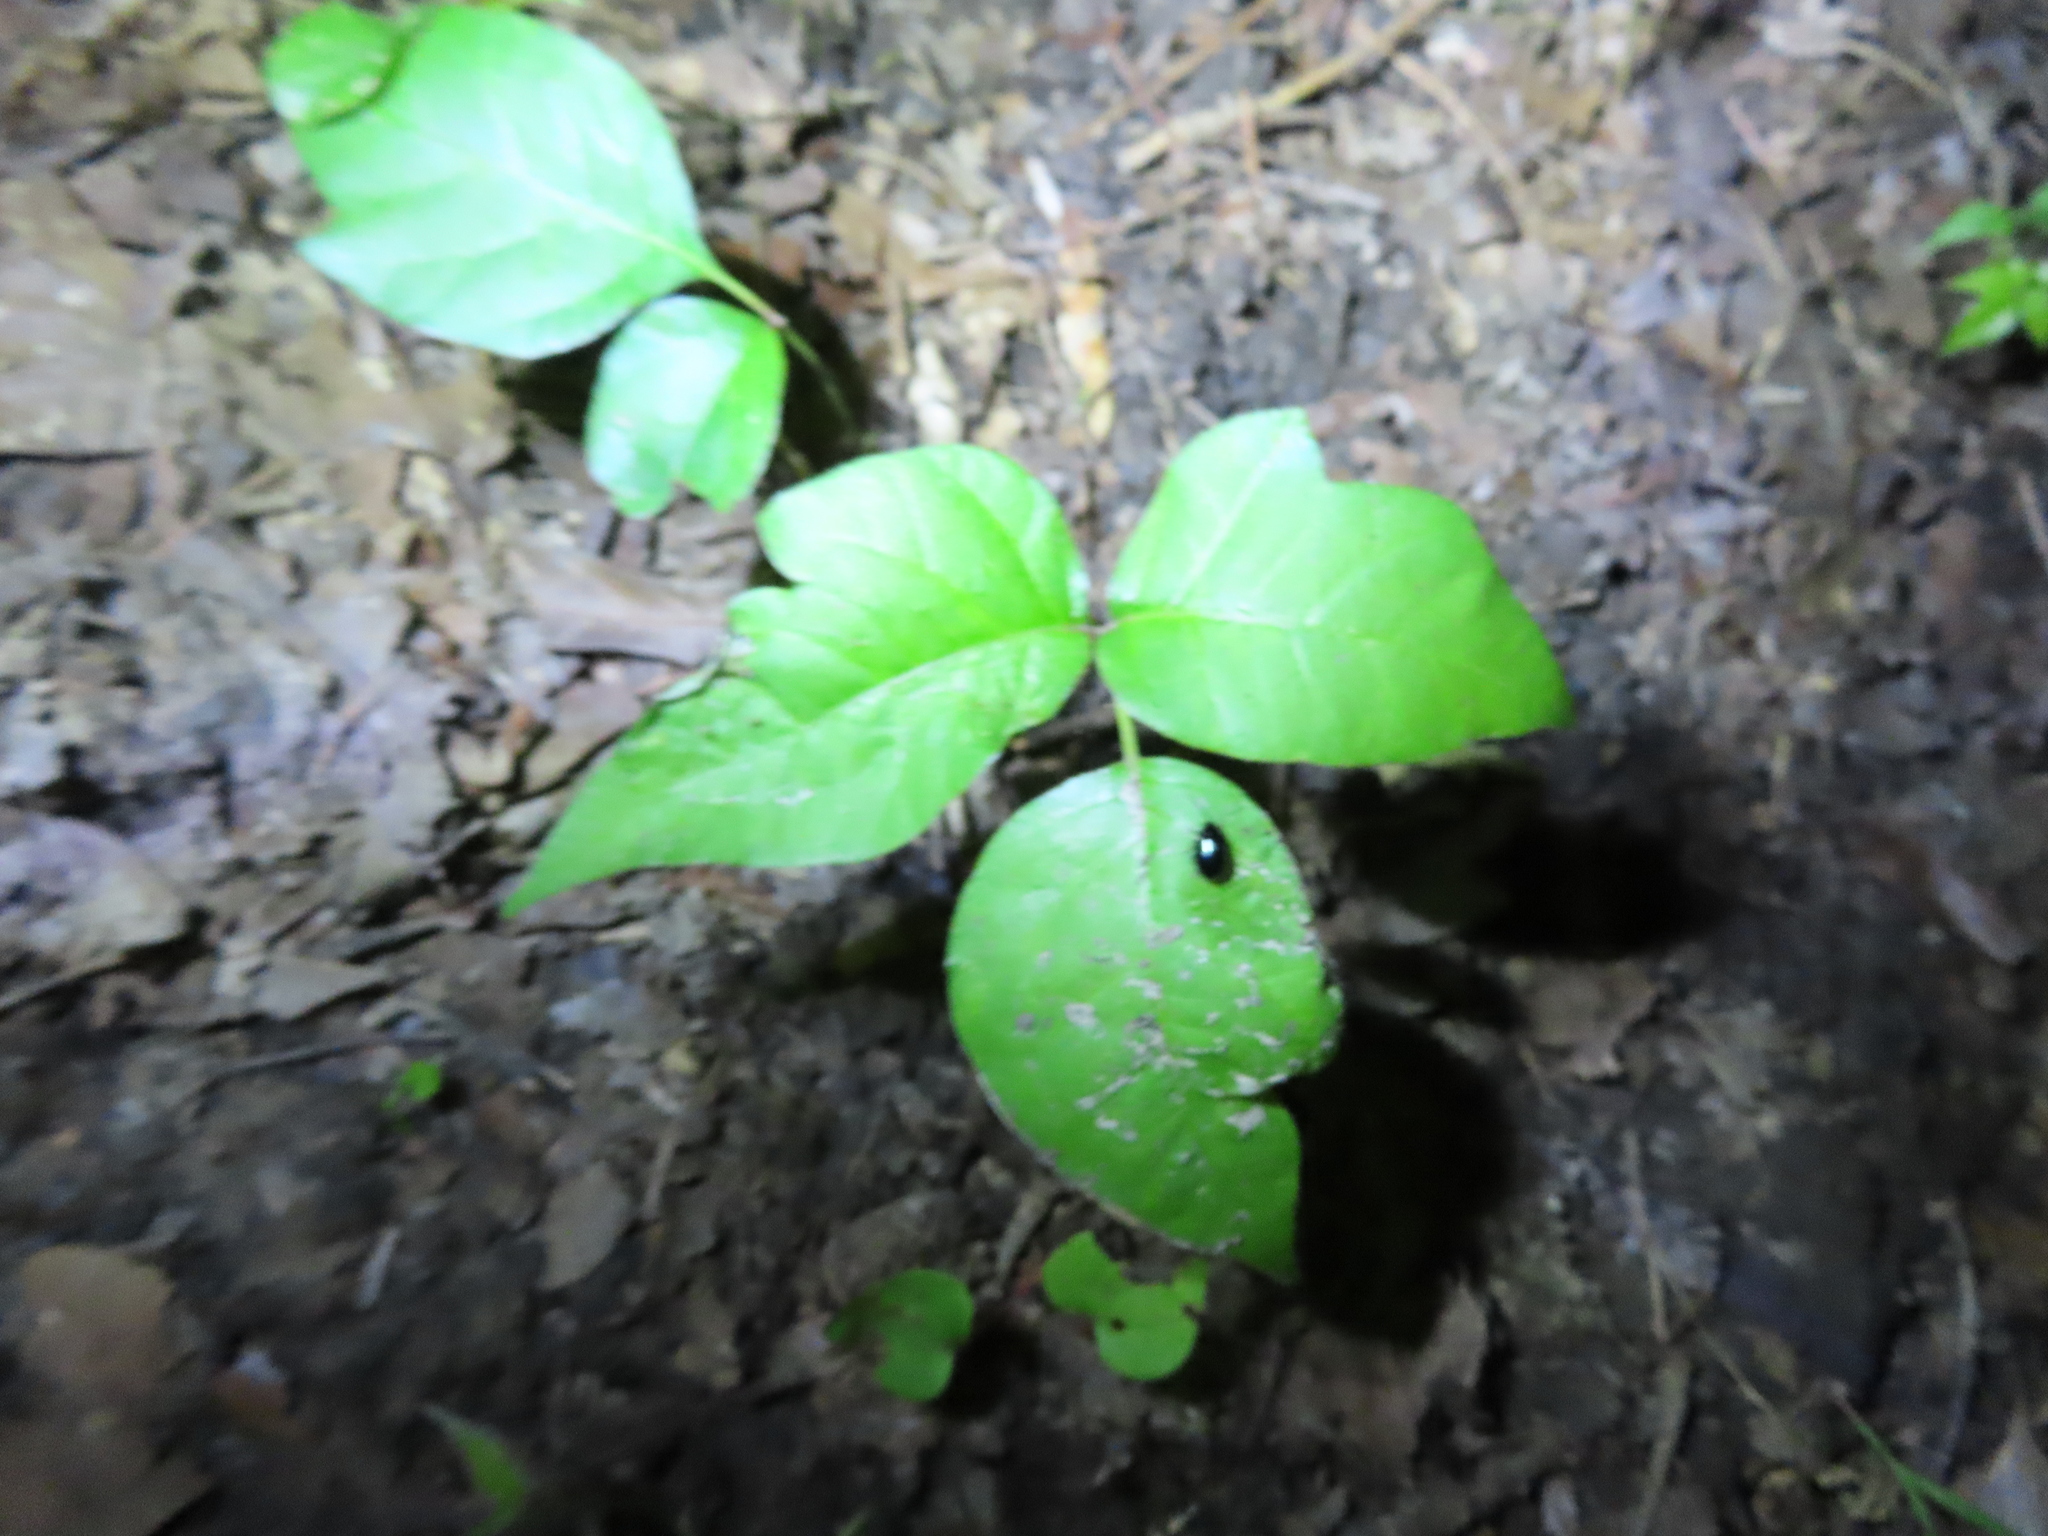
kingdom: Plantae
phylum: Tracheophyta
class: Magnoliopsida
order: Sapindales
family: Anacardiaceae
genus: Toxicodendron
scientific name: Toxicodendron radicans
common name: Poison ivy
